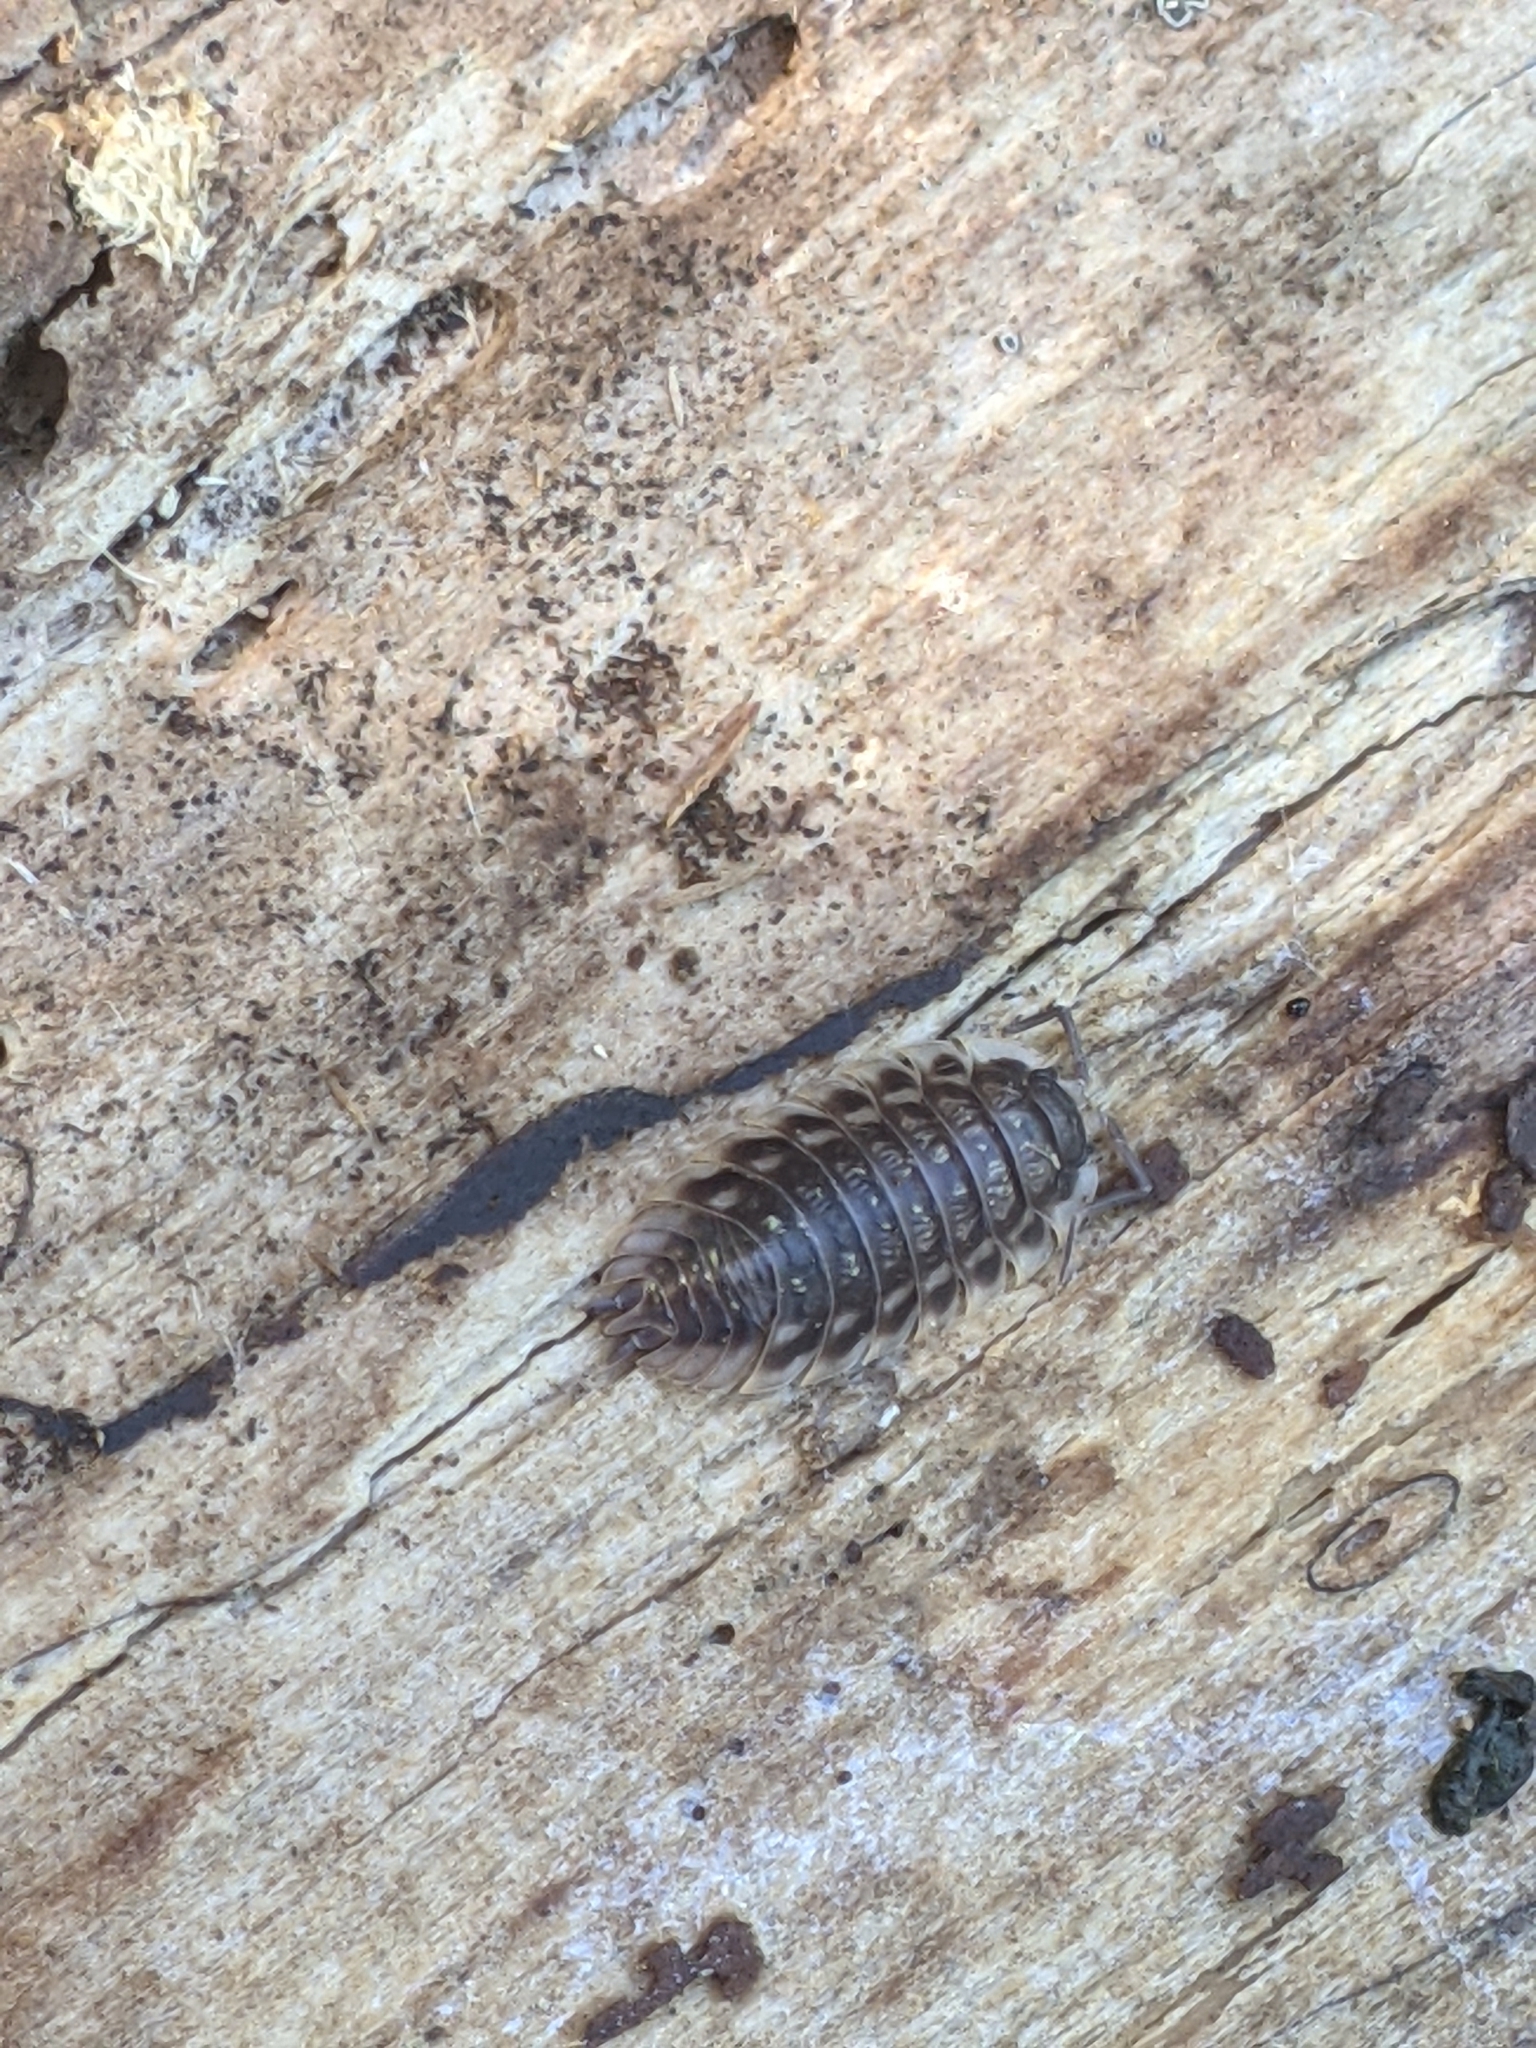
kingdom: Animalia
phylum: Arthropoda
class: Malacostraca
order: Isopoda
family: Oniscidae
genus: Oniscus
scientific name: Oniscus asellus
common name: Common shiny woodlouse
